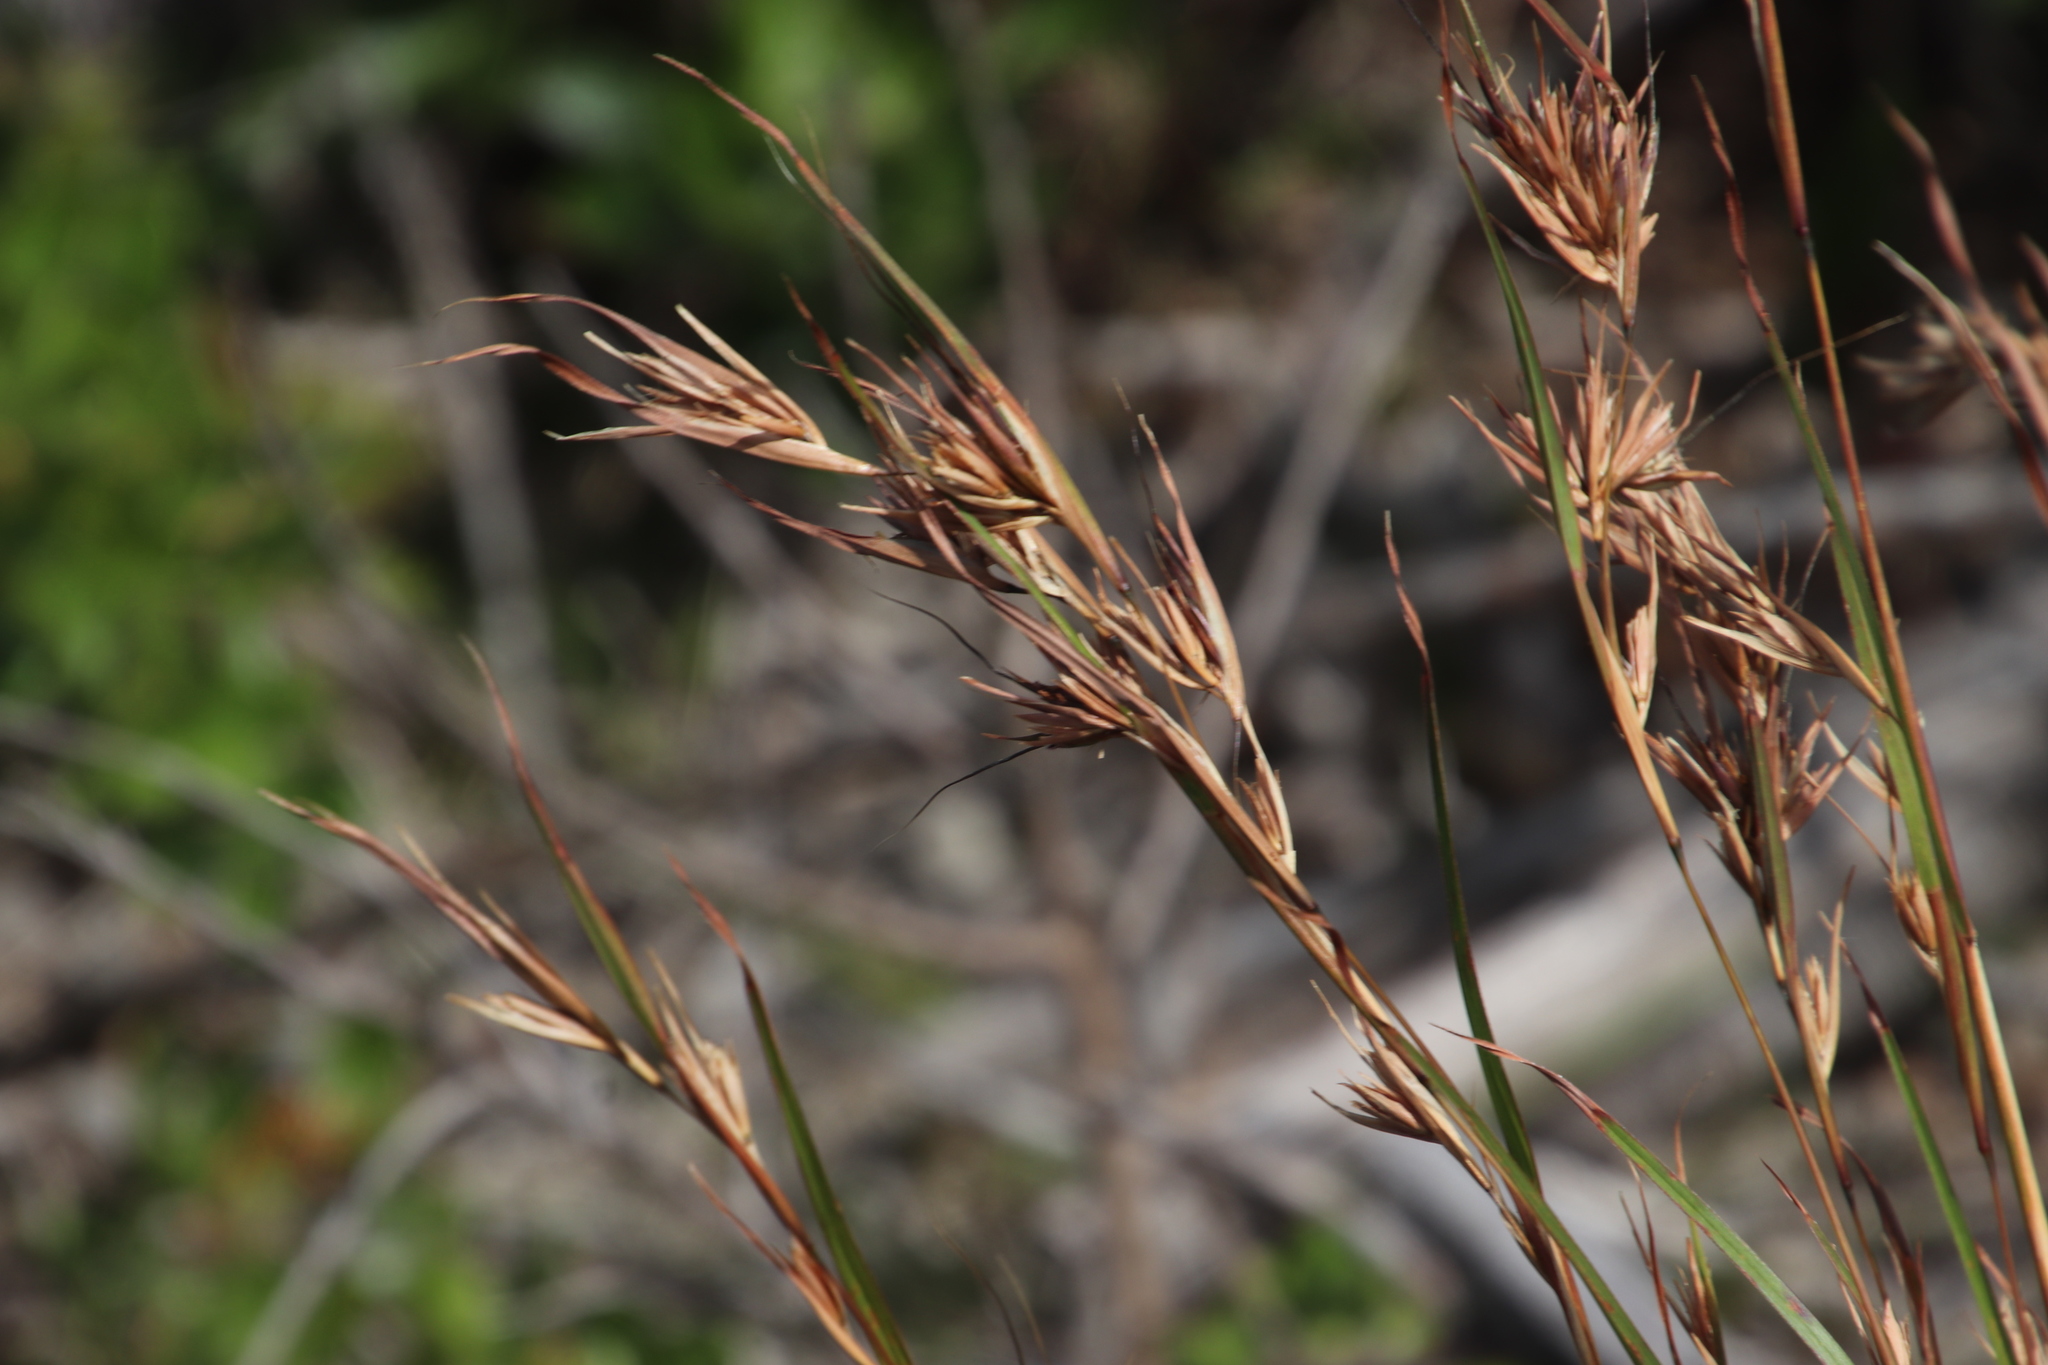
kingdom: Plantae
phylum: Tracheophyta
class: Liliopsida
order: Poales
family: Poaceae
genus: Themeda
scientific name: Themeda triandra
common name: Kangaroo grass
